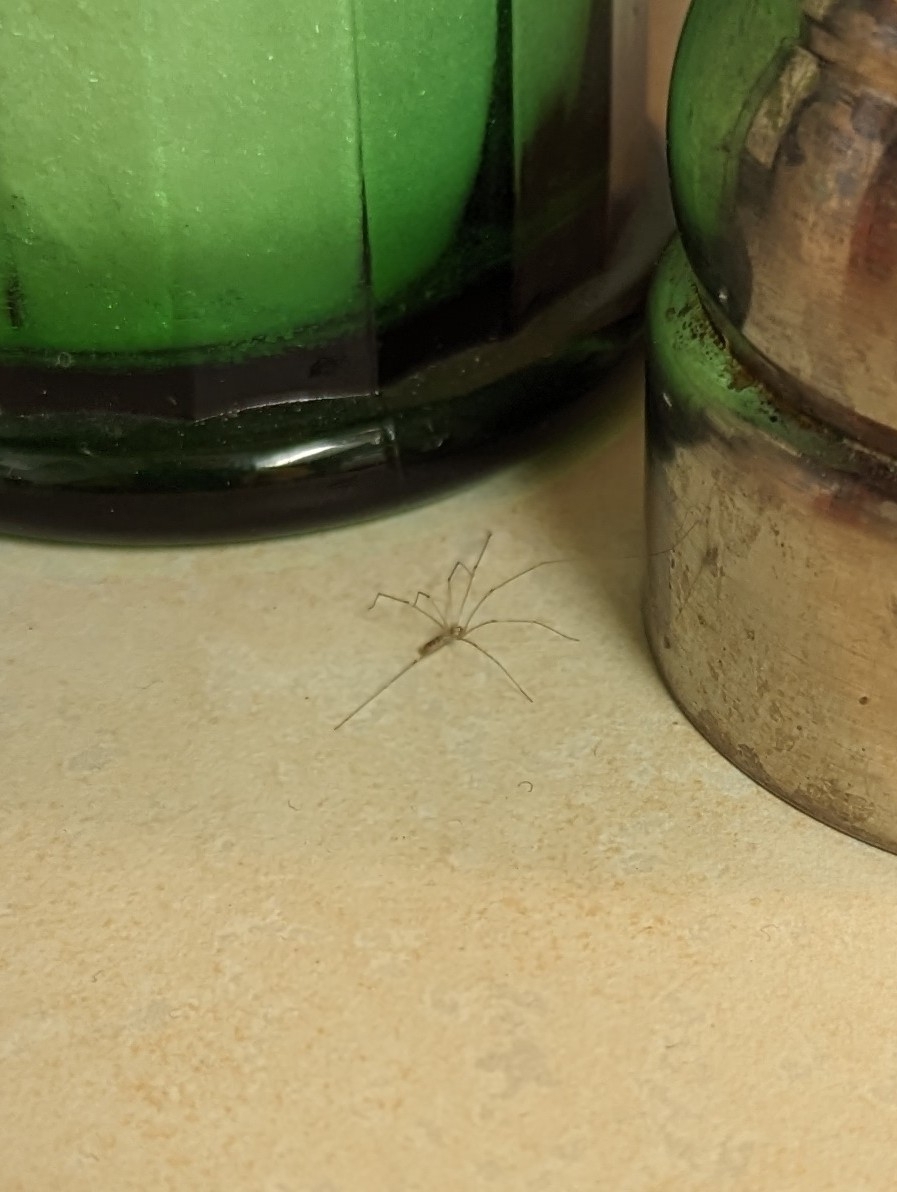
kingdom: Animalia
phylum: Arthropoda
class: Arachnida
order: Araneae
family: Pholcidae
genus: Pholcus
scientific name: Pholcus phalangioides
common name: Longbodied cellar spider
